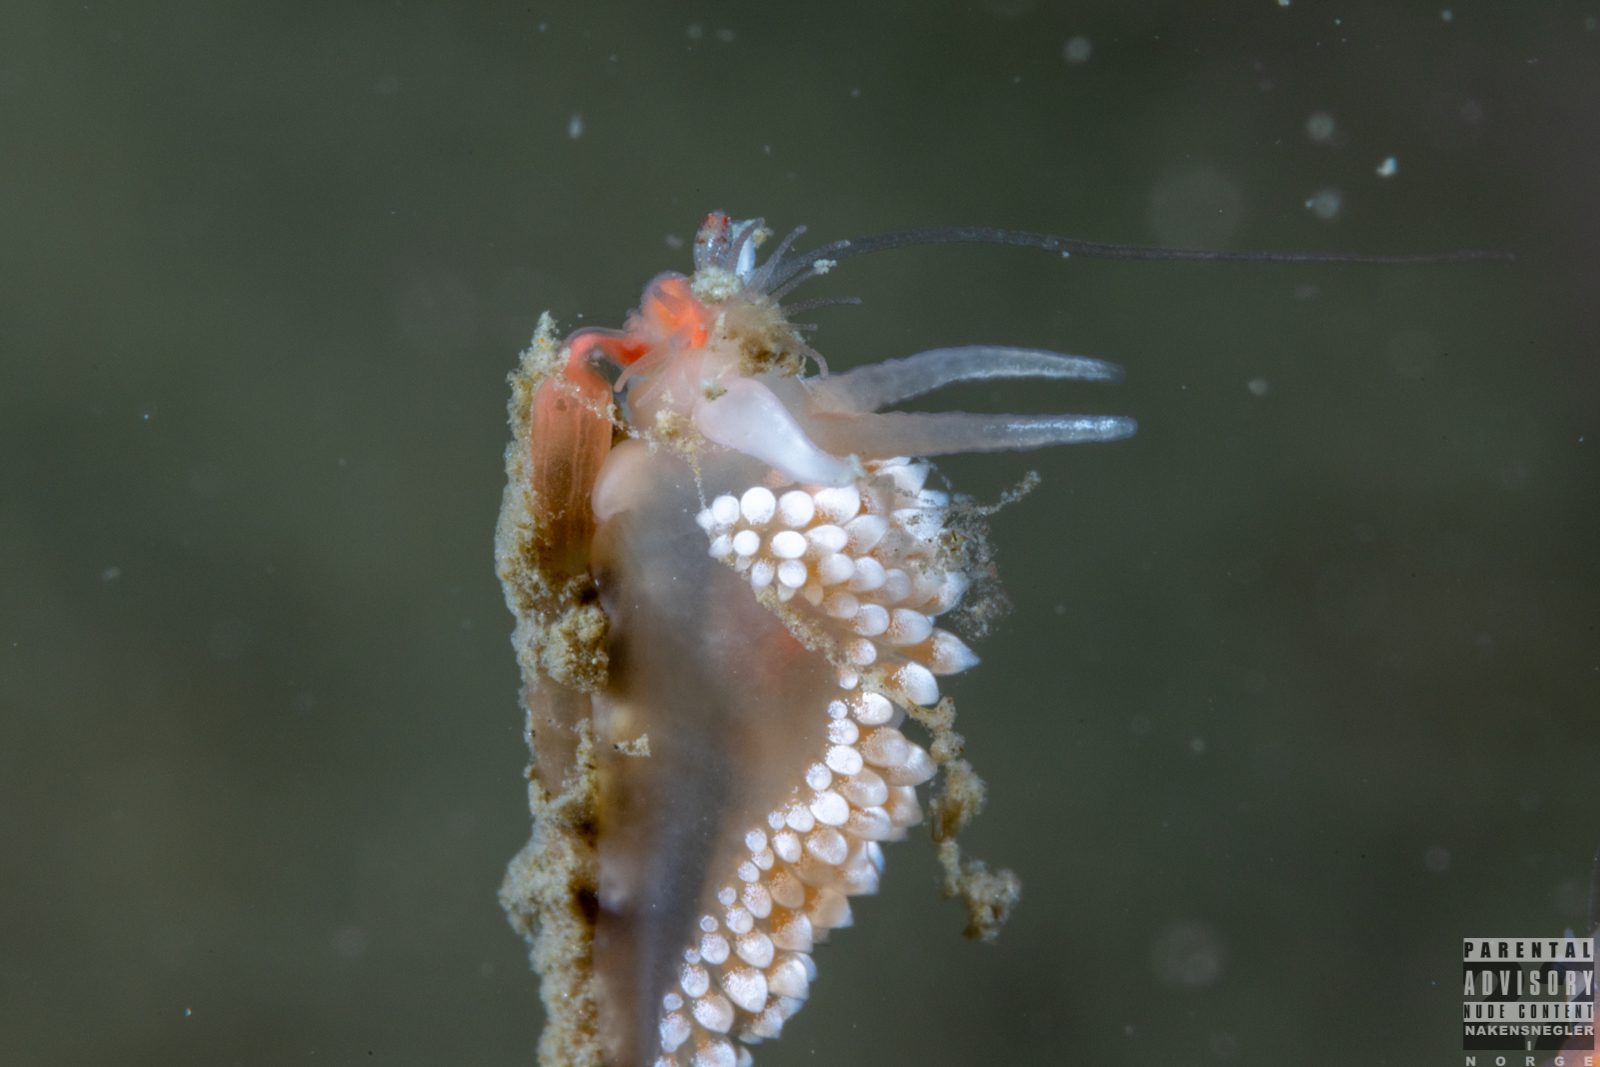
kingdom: Animalia
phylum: Mollusca
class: Gastropoda
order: Nudibranchia
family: Coryphellidae
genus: Coryphella
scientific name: Coryphella verrucosa
